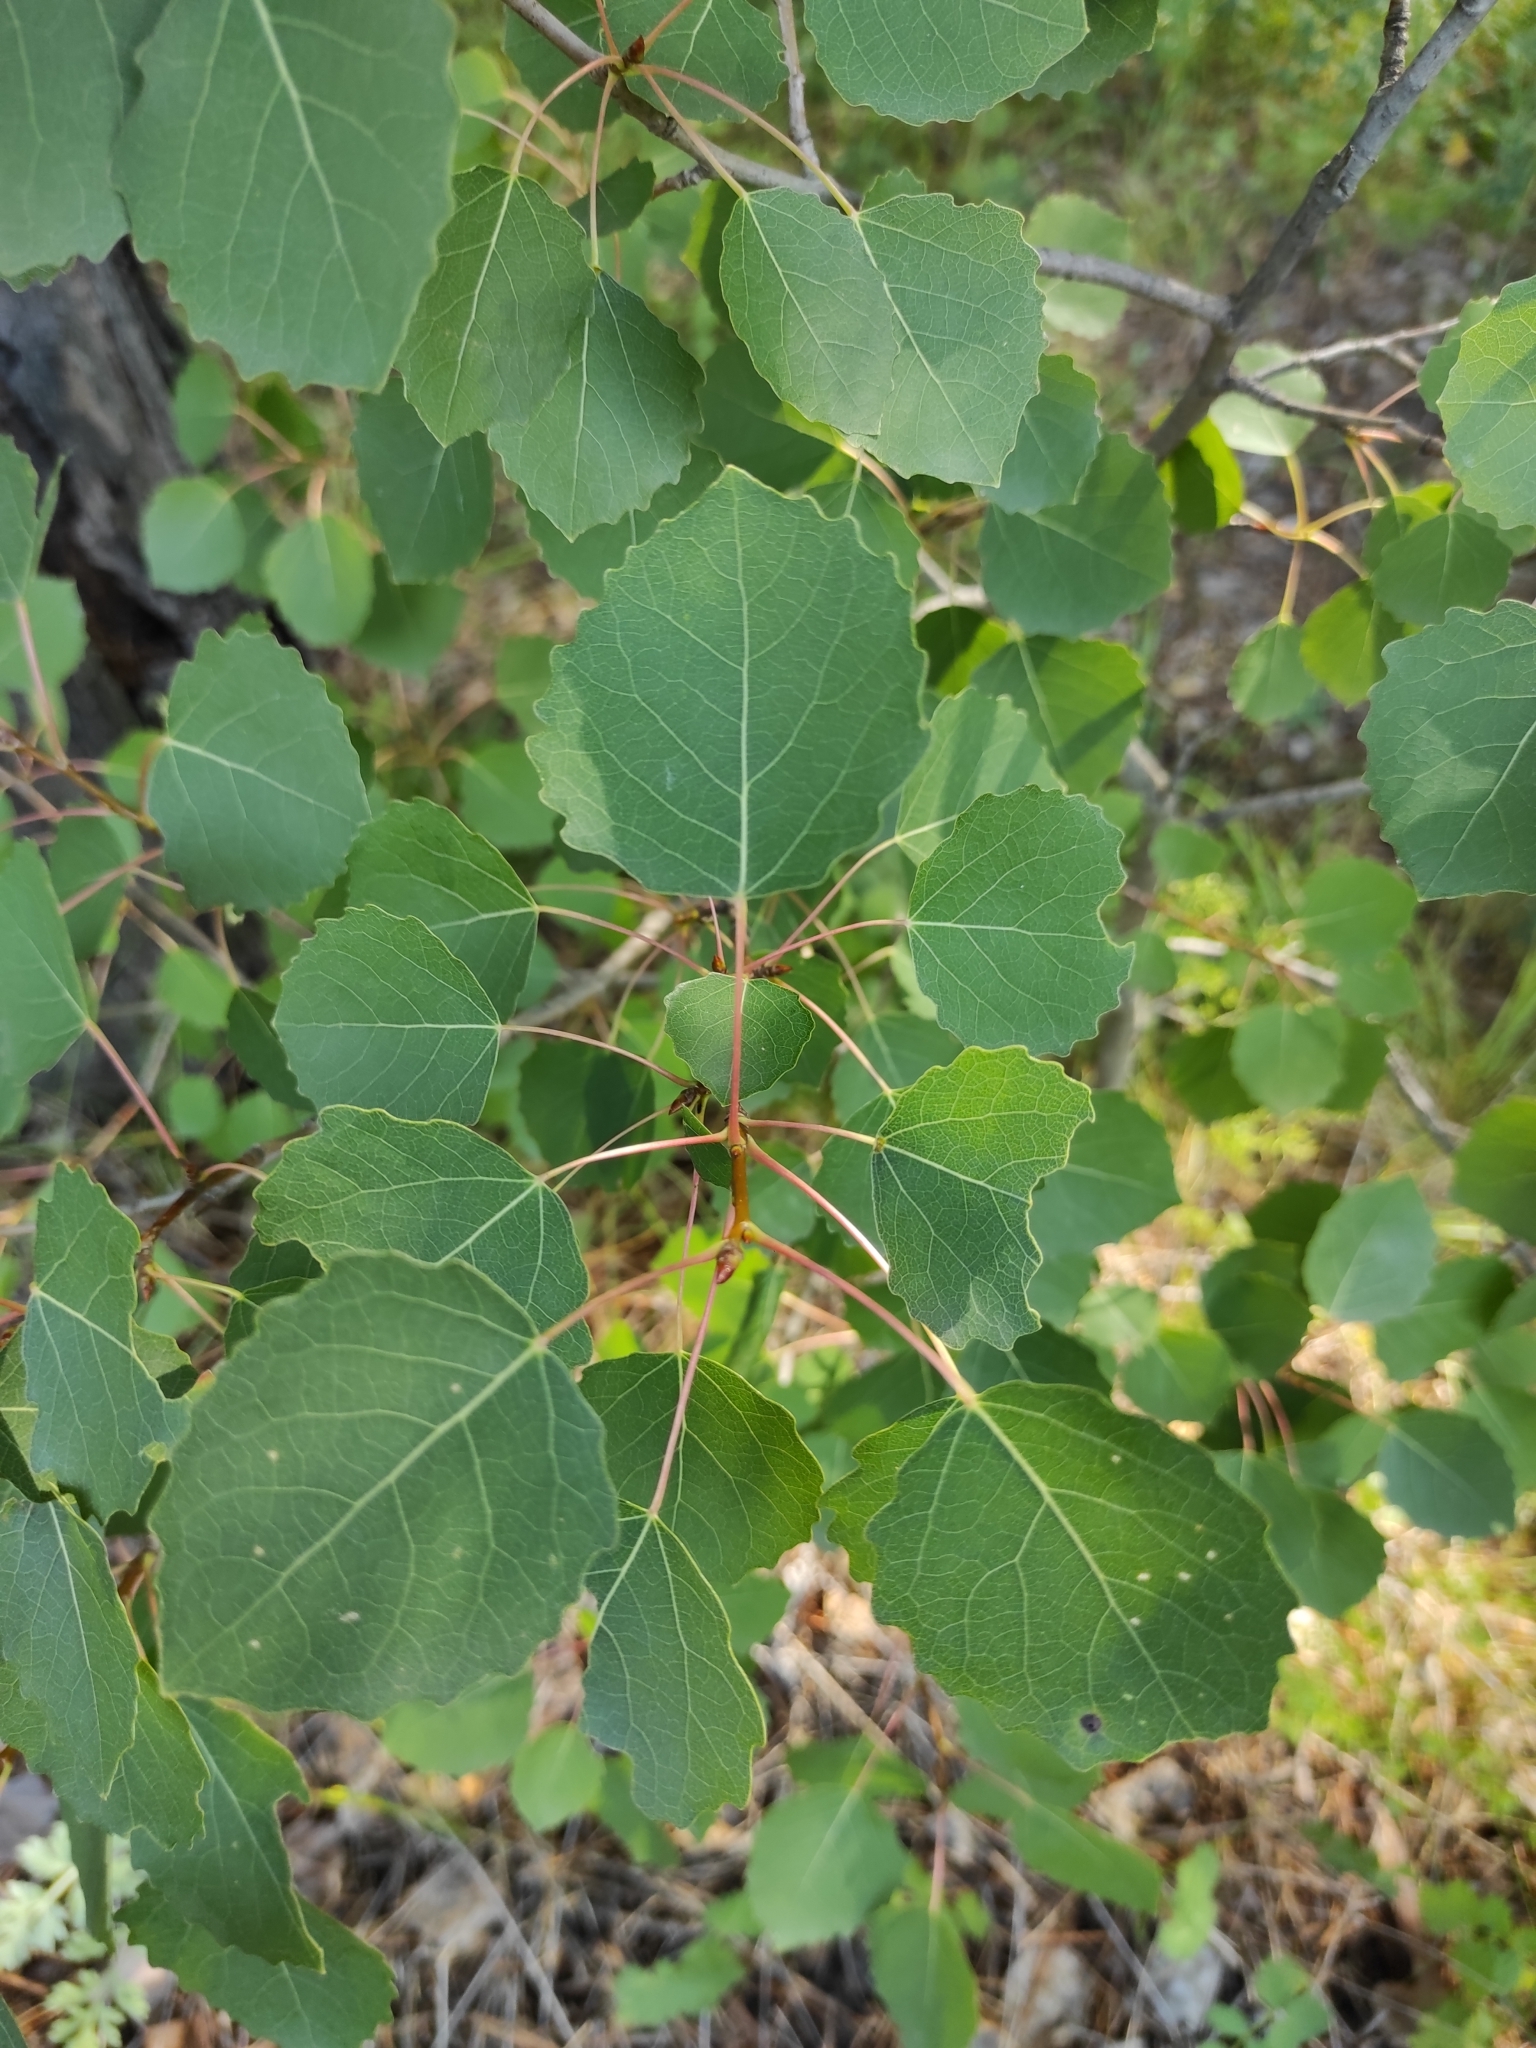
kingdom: Plantae
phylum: Tracheophyta
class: Magnoliopsida
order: Malpighiales
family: Salicaceae
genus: Populus
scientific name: Populus tremula
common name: European aspen
